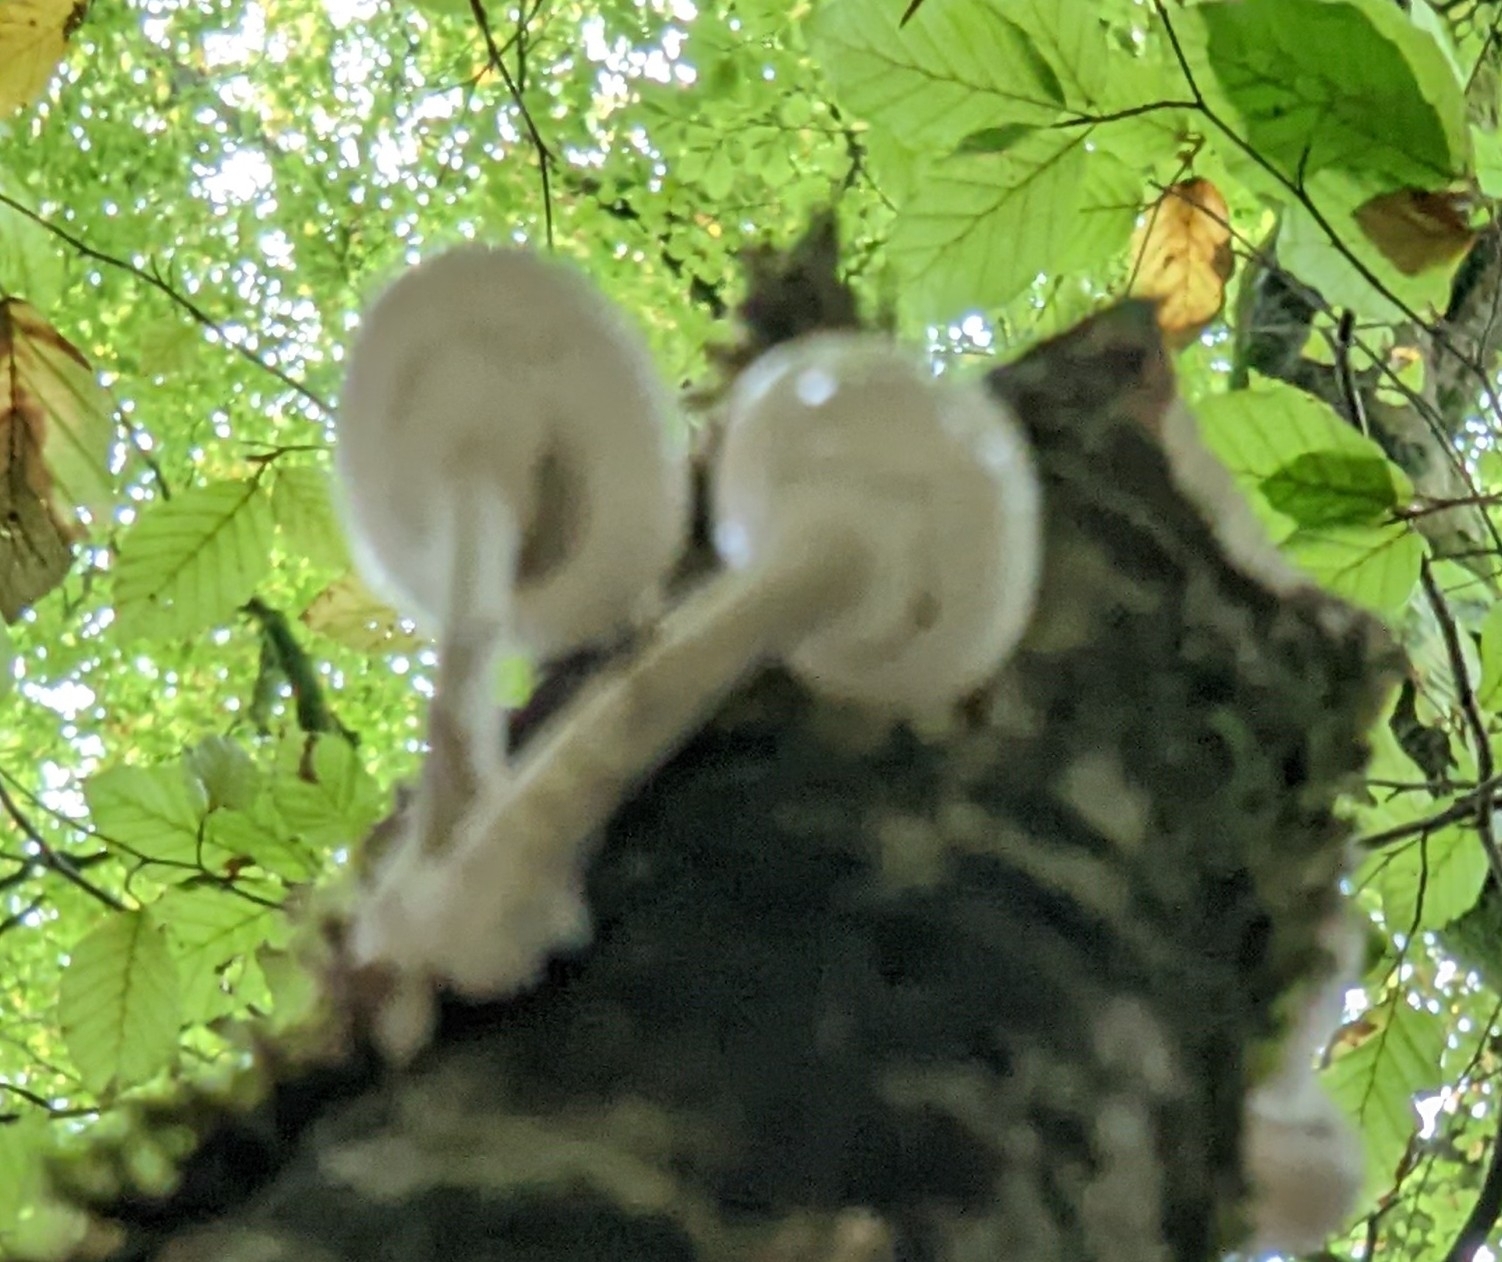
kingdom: Fungi
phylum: Basidiomycota
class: Agaricomycetes
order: Agaricales
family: Physalacriaceae
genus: Mucidula
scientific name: Mucidula mucida
